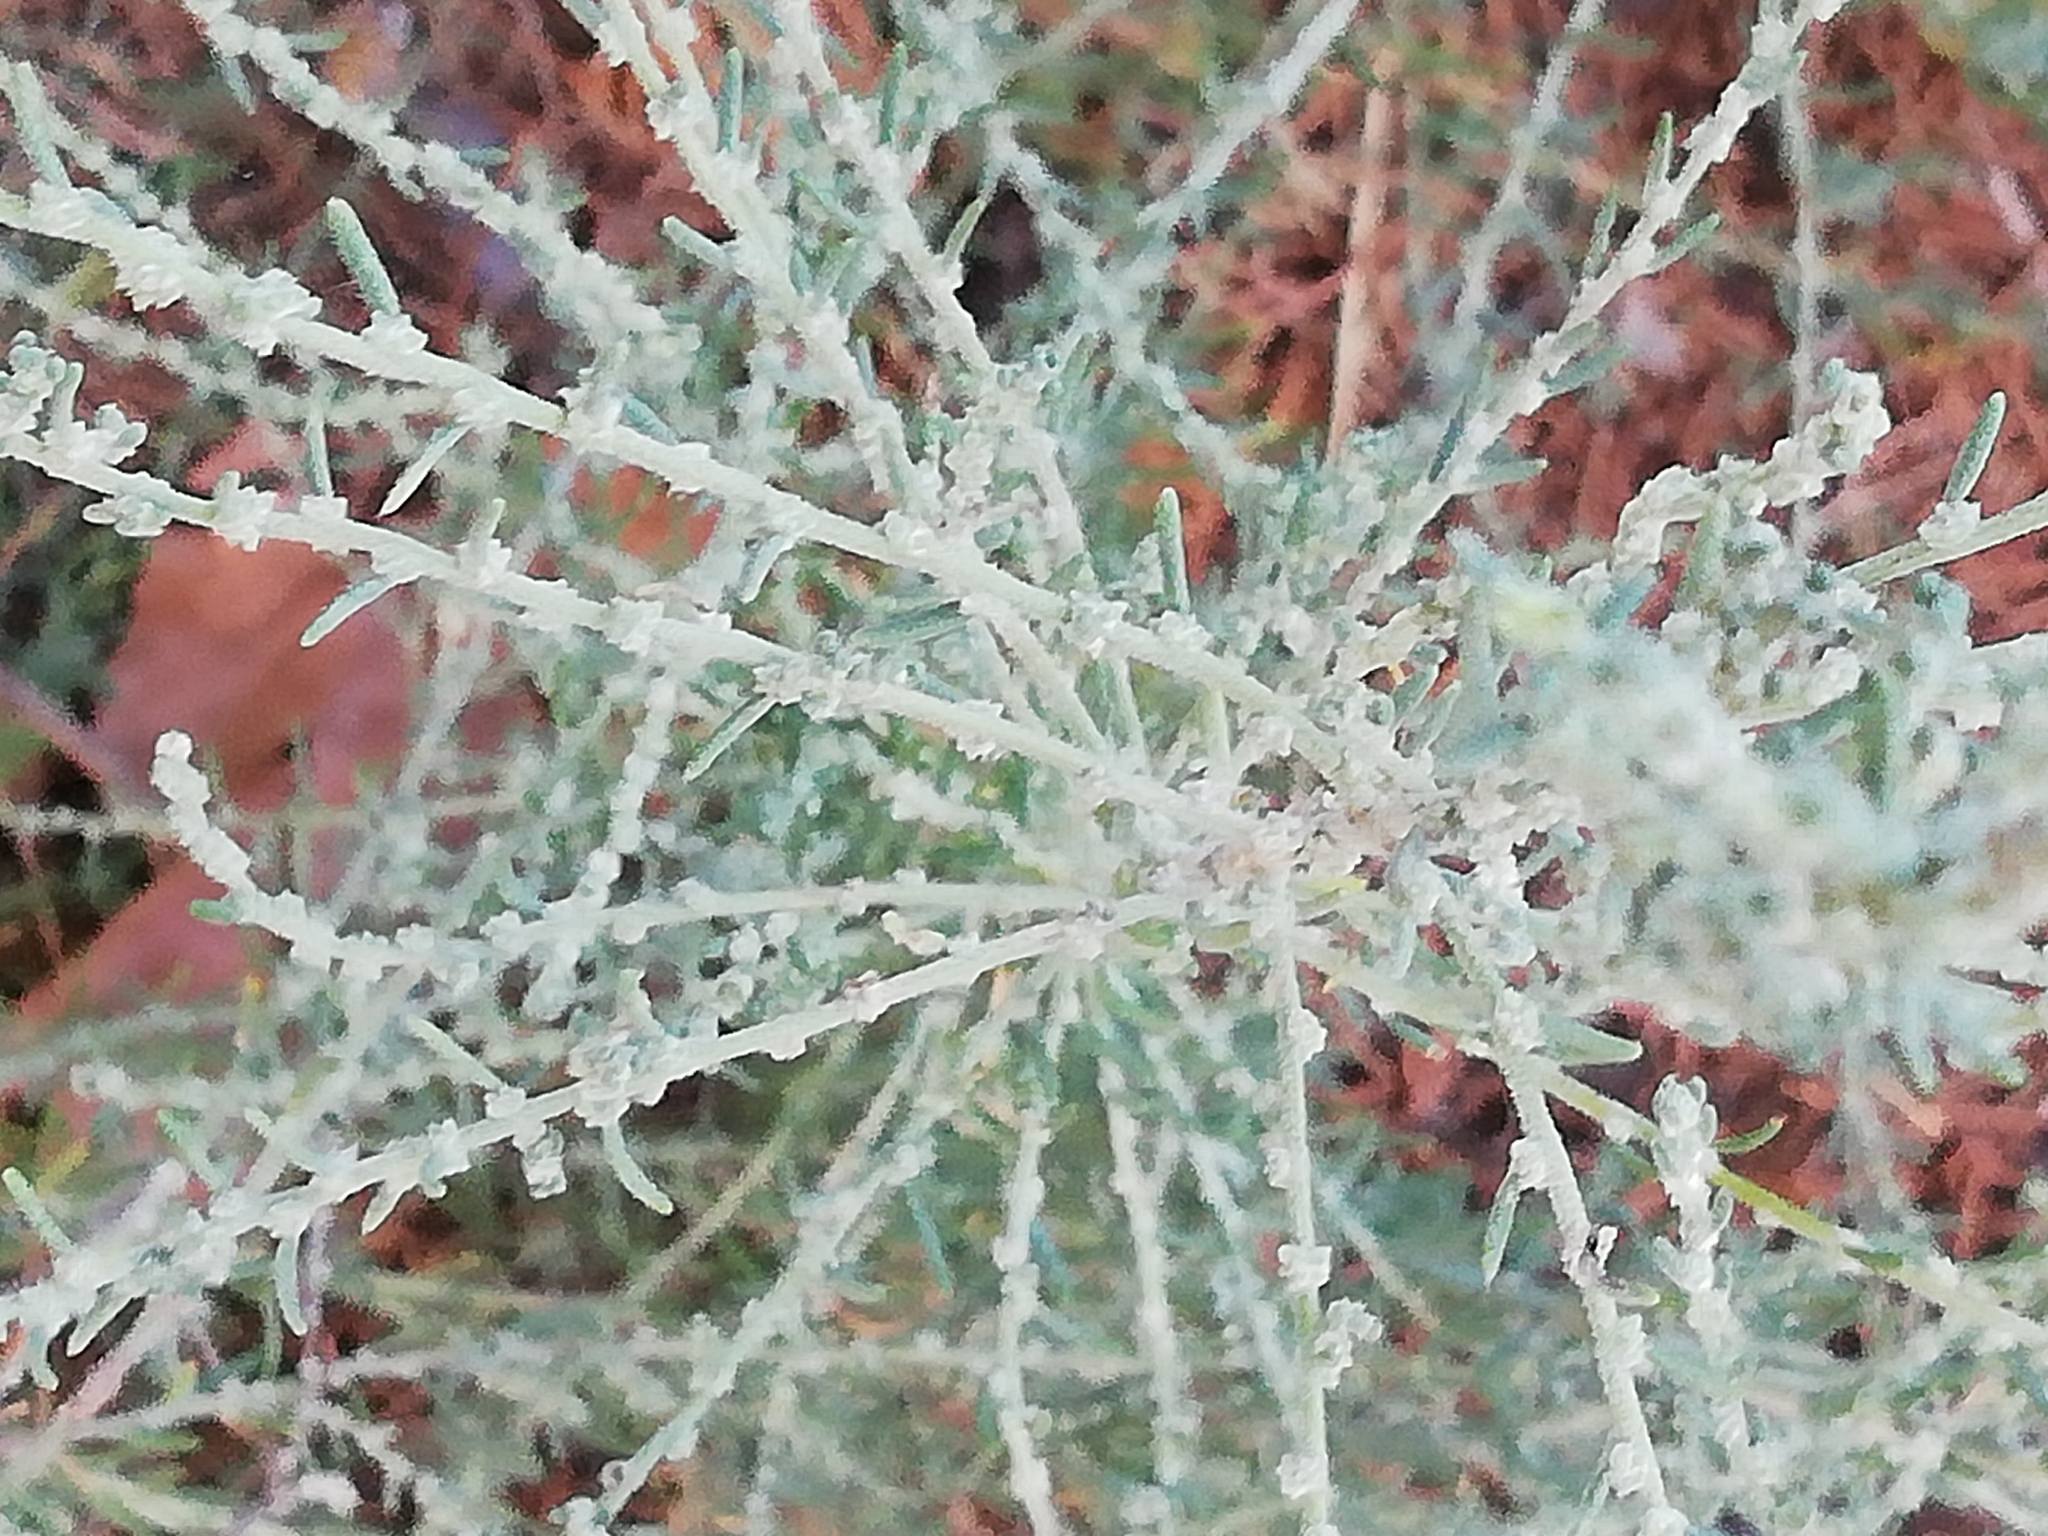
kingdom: Plantae
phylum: Tracheophyta
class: Magnoliopsida
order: Caryophyllales
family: Amaranthaceae
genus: Bassia
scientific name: Bassia prostrata
